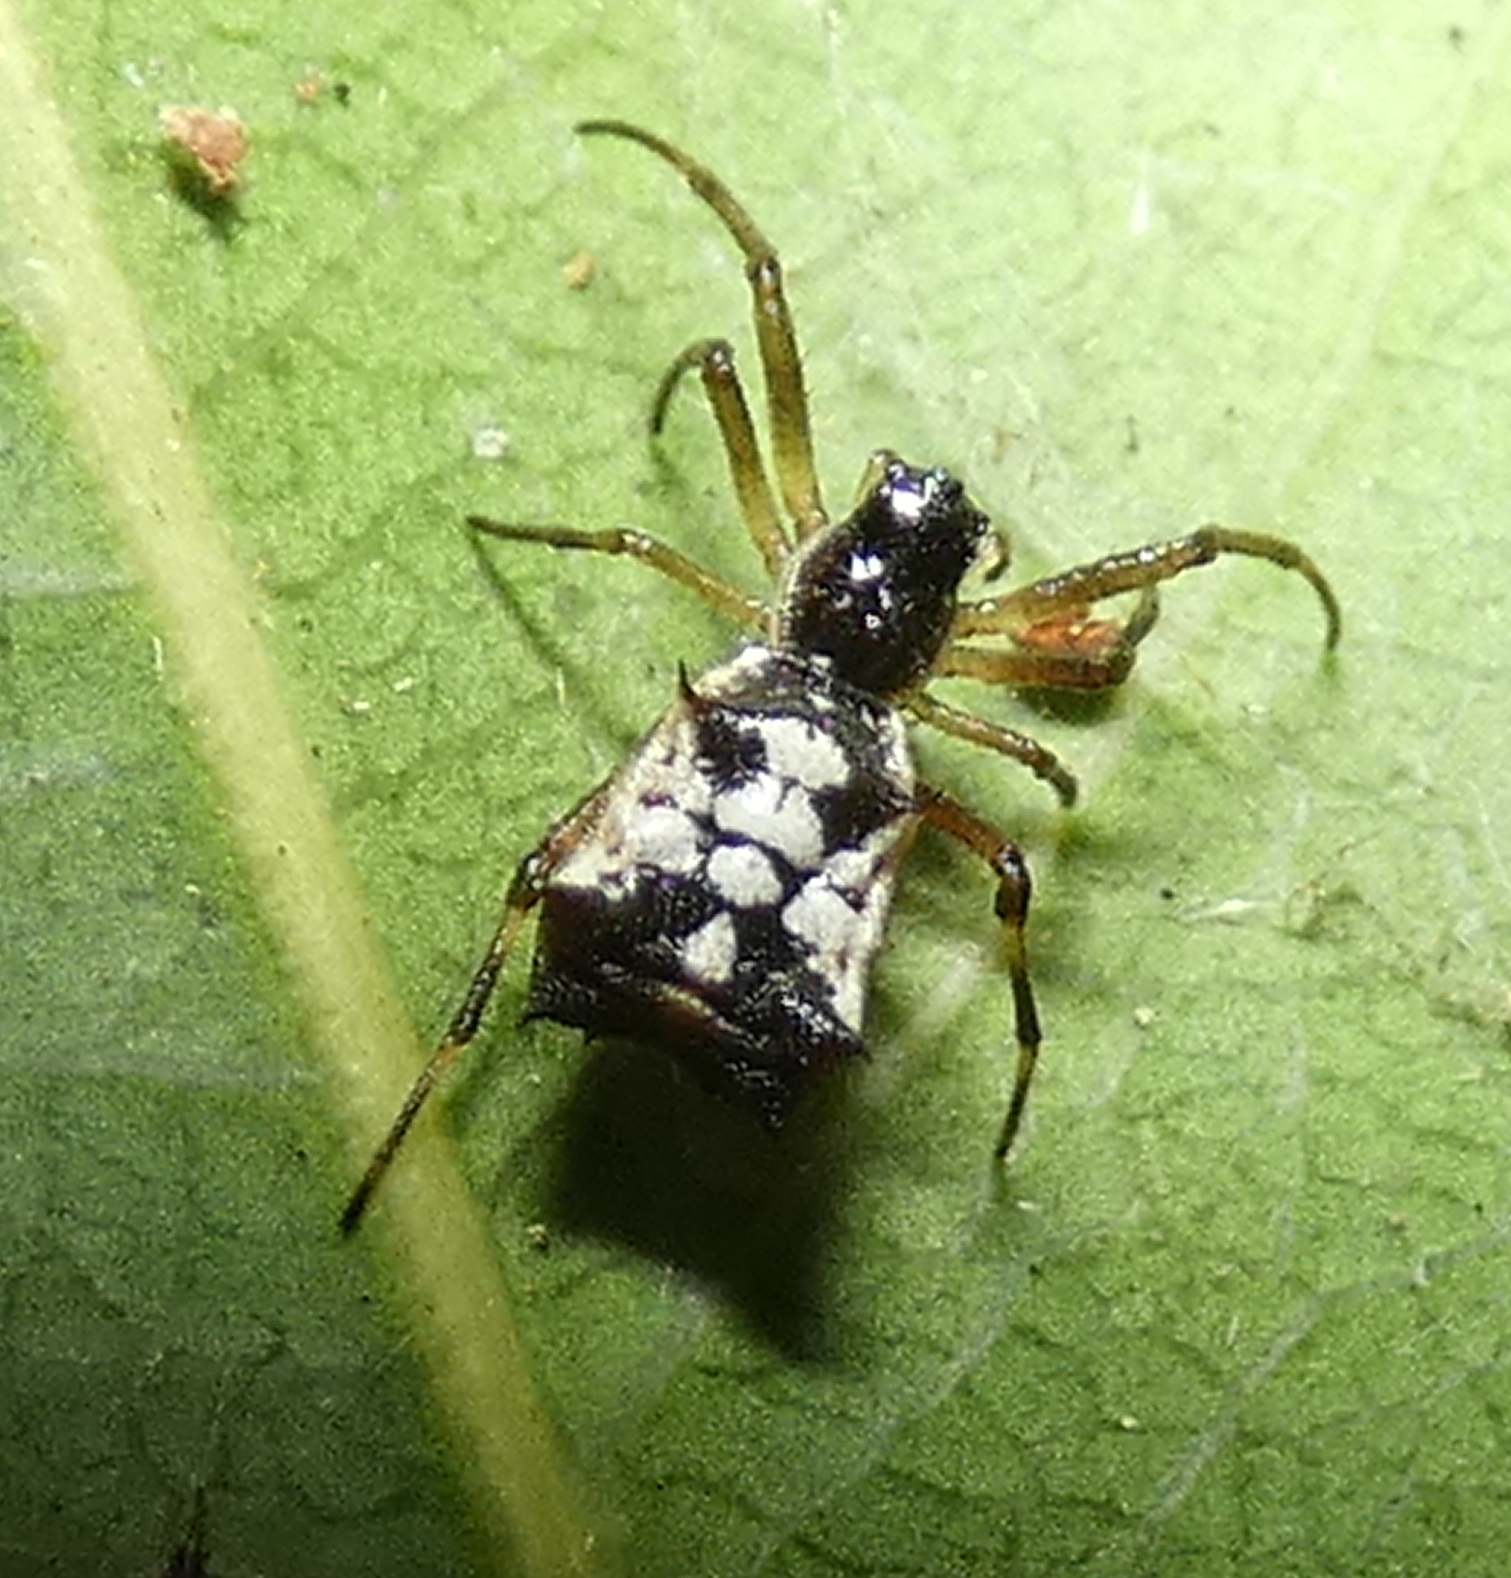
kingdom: Animalia
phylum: Arthropoda
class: Arachnida
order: Araneae
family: Araneidae
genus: Micrathena
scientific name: Micrathena picta
